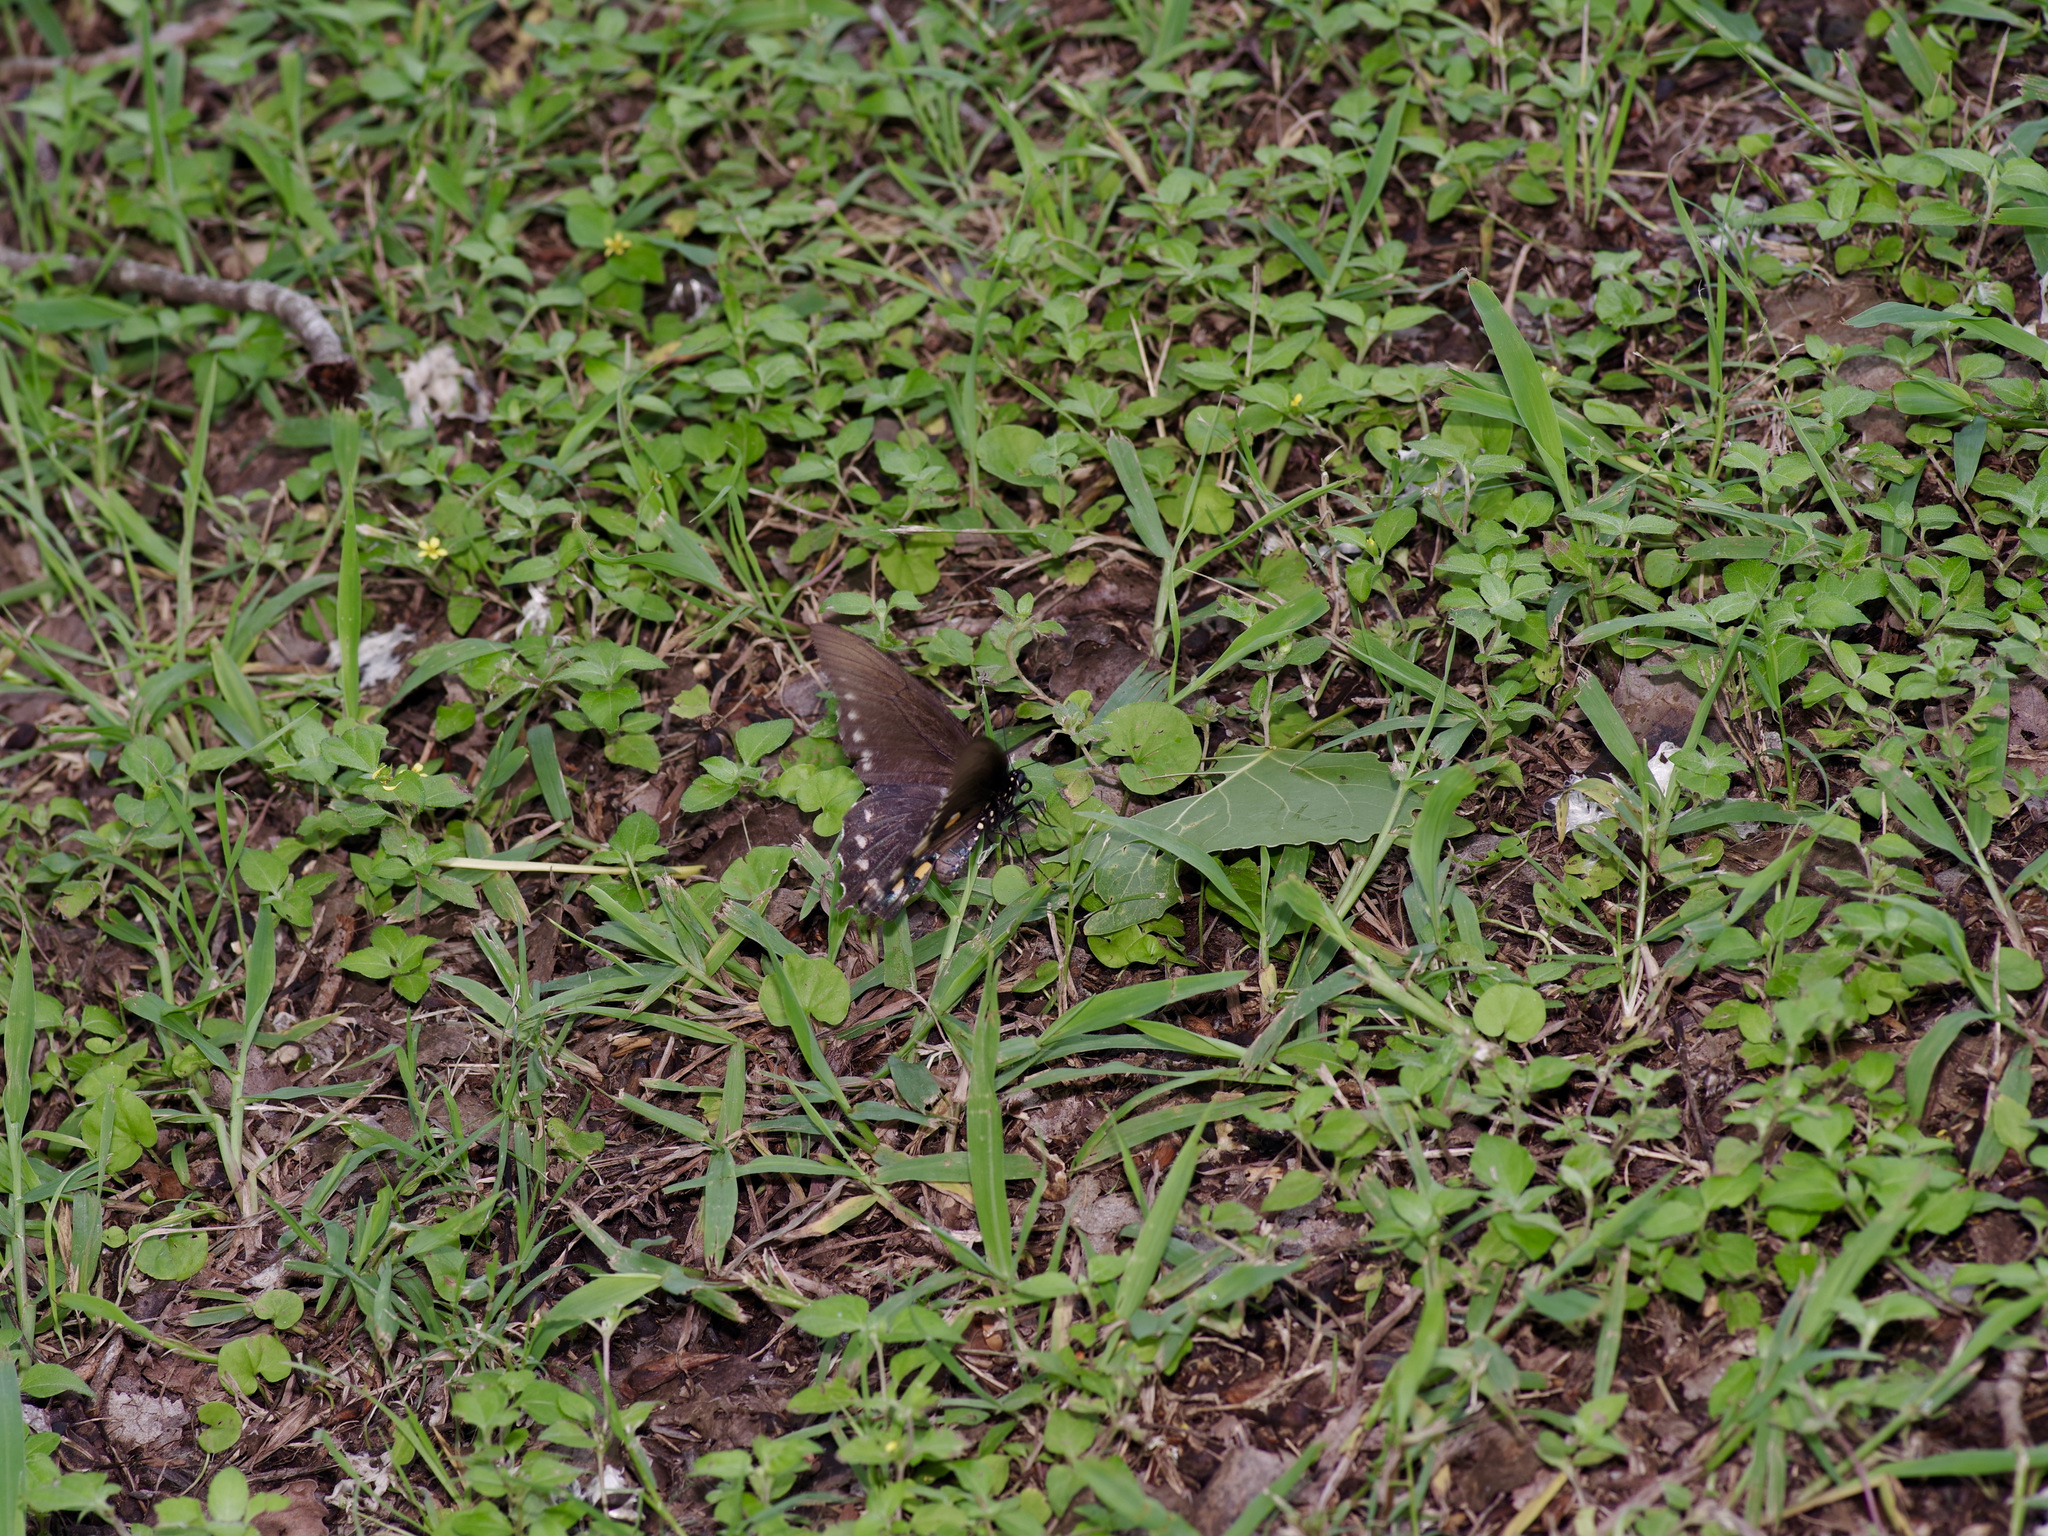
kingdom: Animalia
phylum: Arthropoda
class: Insecta
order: Lepidoptera
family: Papilionidae
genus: Battus
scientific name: Battus philenor
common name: Pipevine swallowtail
